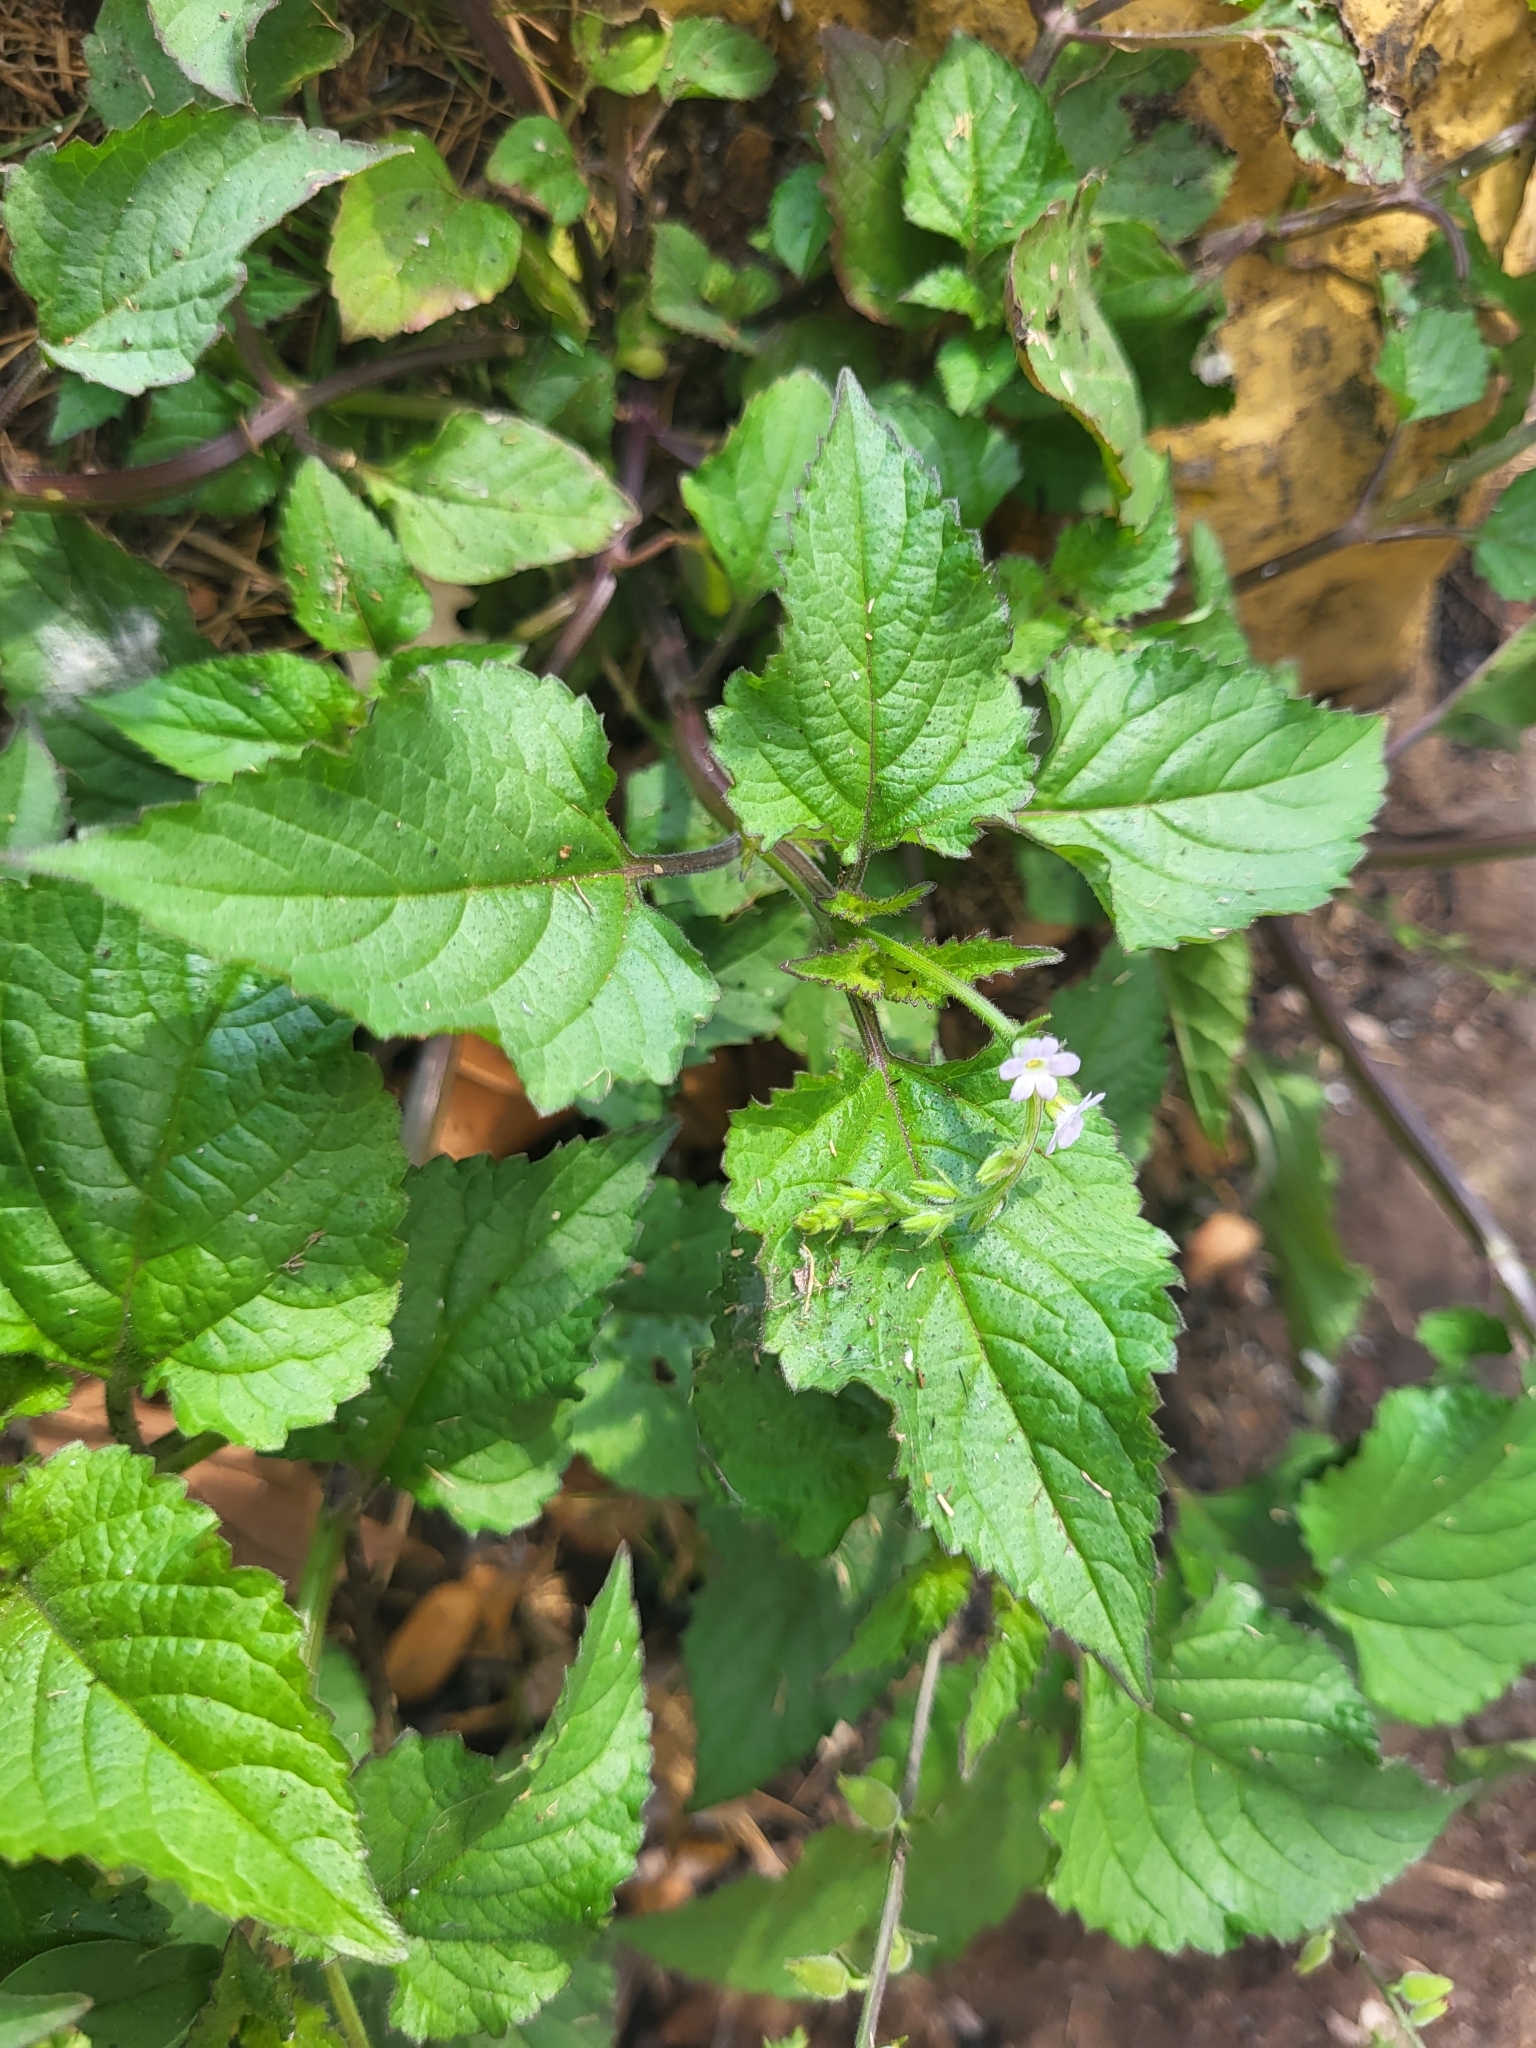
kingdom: Plantae
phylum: Tracheophyta
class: Magnoliopsida
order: Lamiales
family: Verbenaceae
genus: Priva
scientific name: Priva lappulacea
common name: Fasten-'pon-coat
